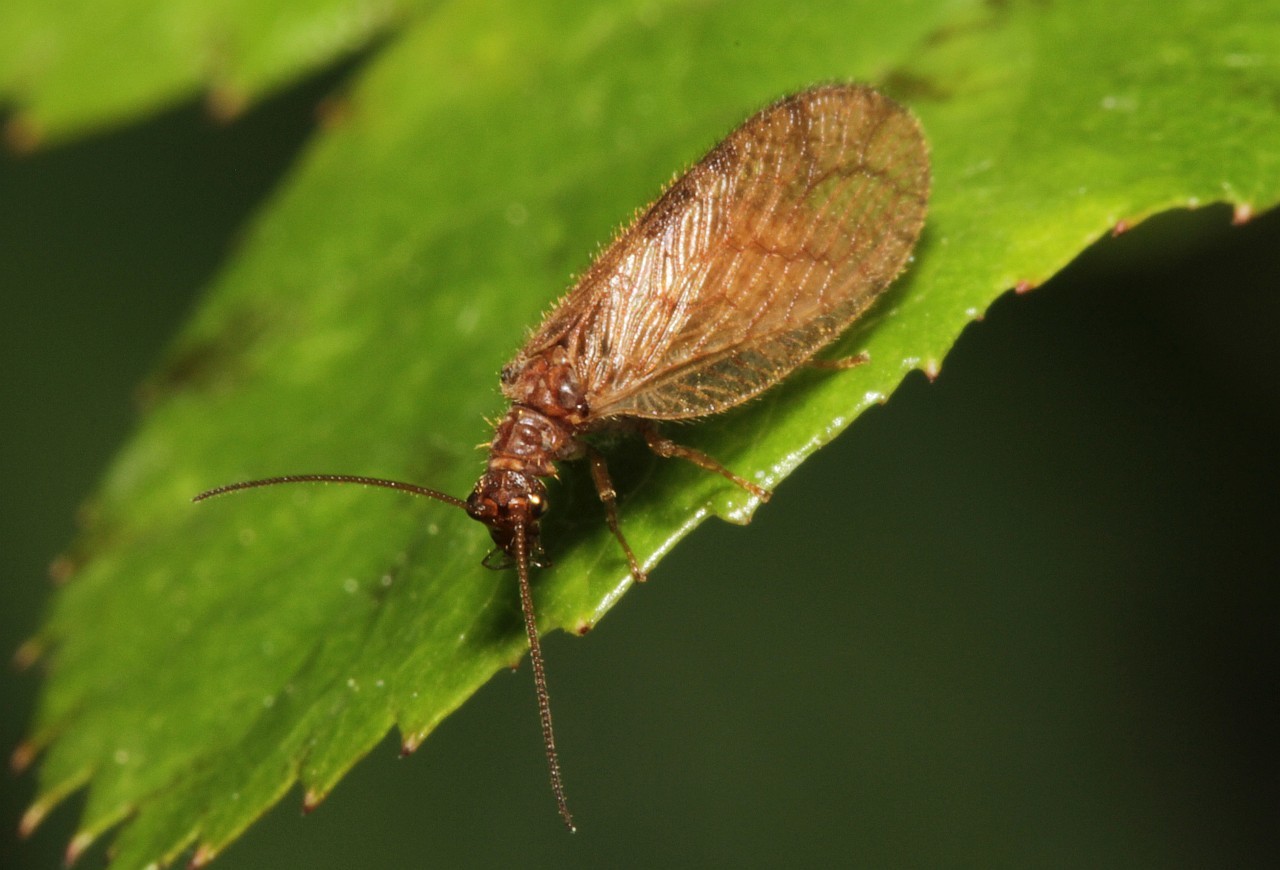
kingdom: Animalia
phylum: Arthropoda
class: Insecta
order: Neuroptera
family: Hemerobiidae
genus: Micromus
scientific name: Micromus angulatus
